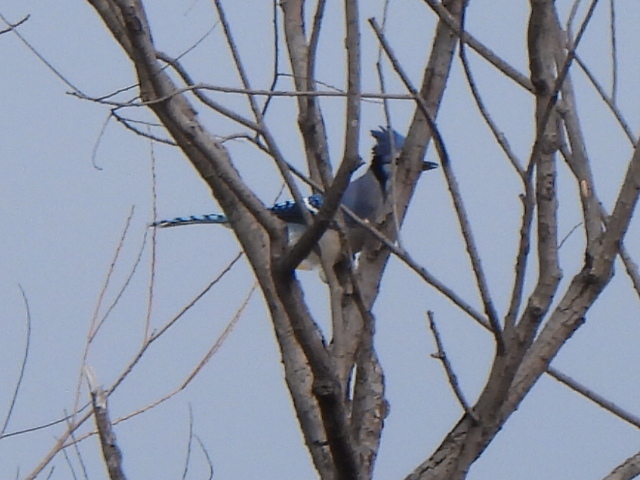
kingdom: Animalia
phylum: Chordata
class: Aves
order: Passeriformes
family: Corvidae
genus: Cyanocitta
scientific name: Cyanocitta cristata
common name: Blue jay
